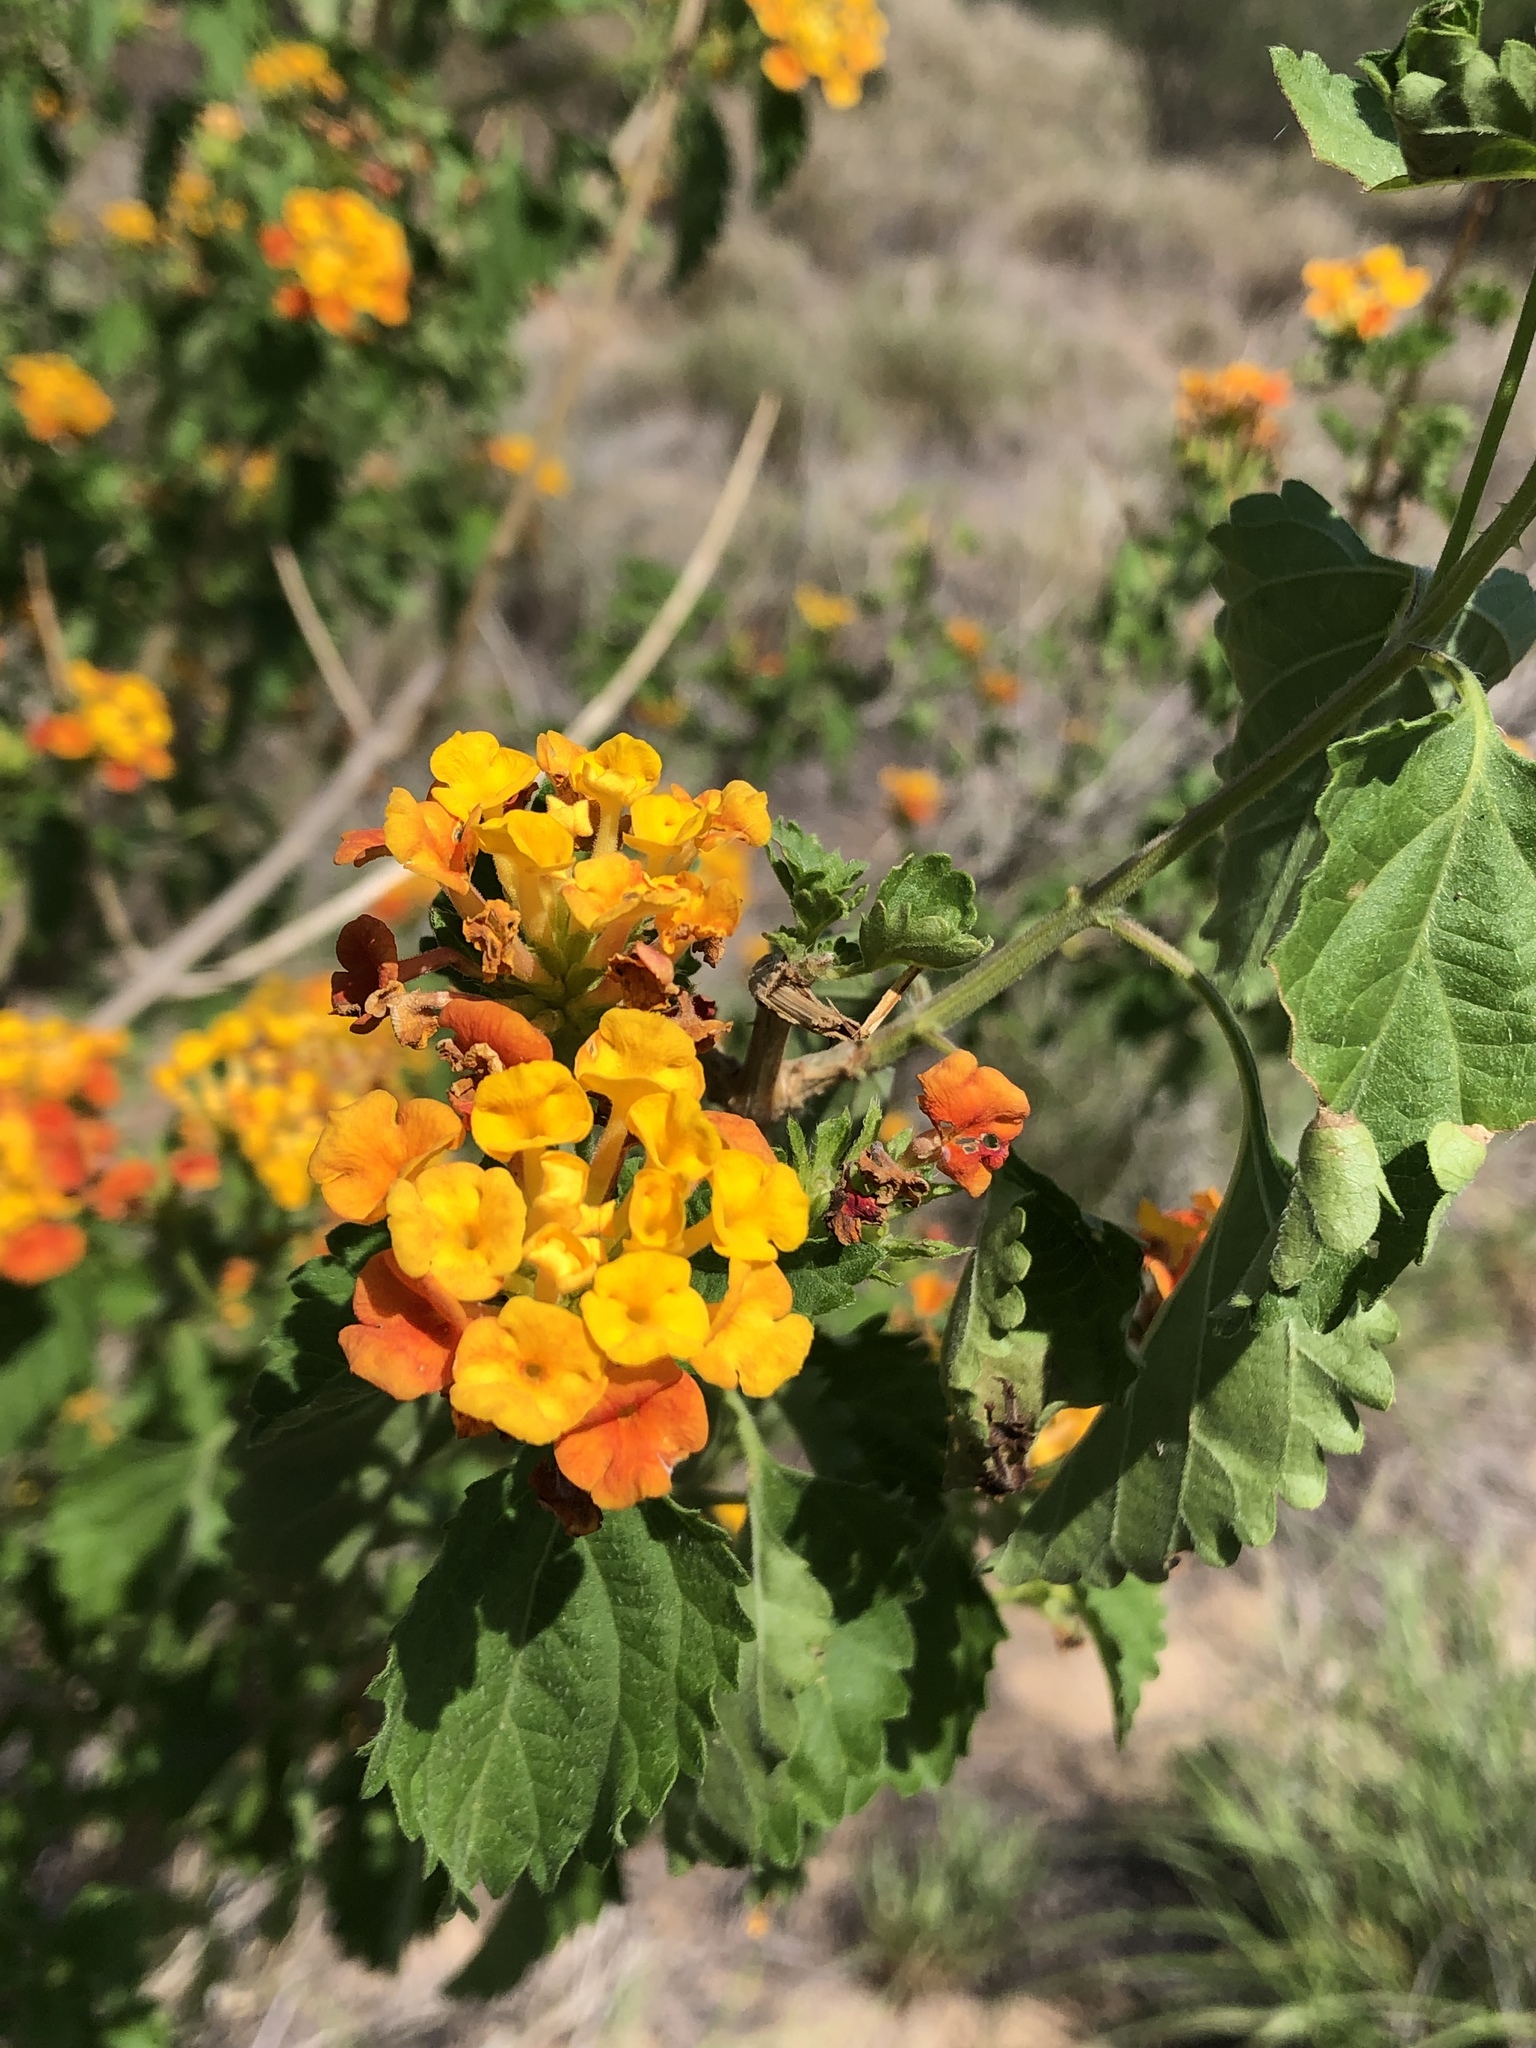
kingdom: Plantae
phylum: Tracheophyta
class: Magnoliopsida
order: Lamiales
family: Verbenaceae
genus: Lantana
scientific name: Lantana urticoides
